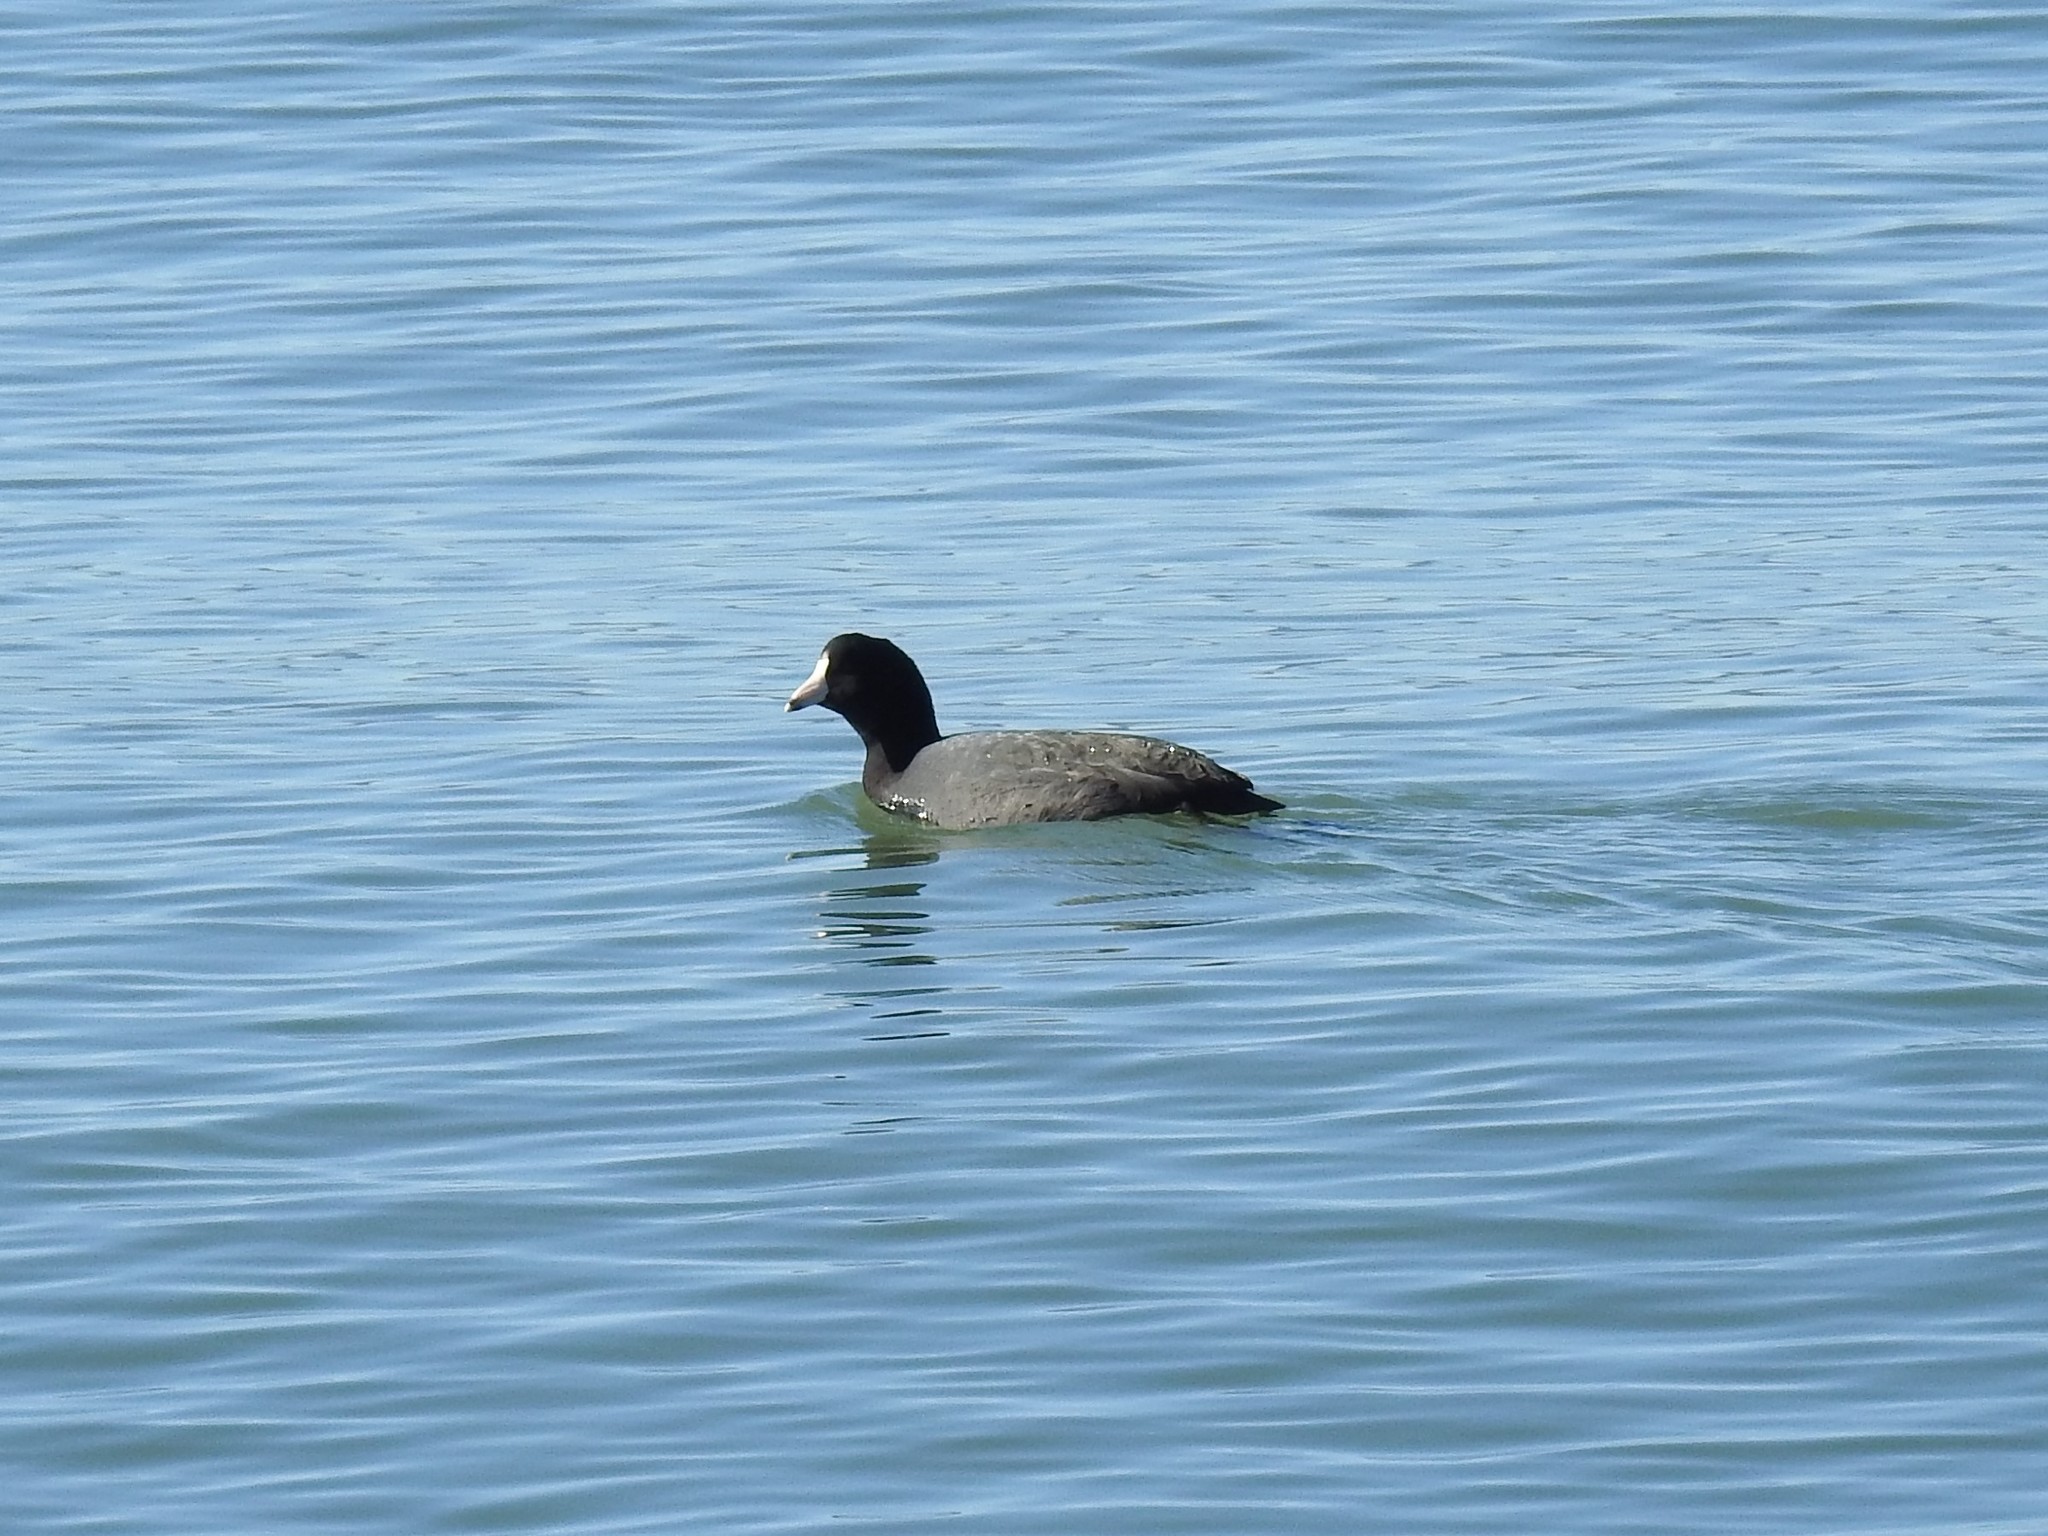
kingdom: Animalia
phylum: Chordata
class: Aves
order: Gruiformes
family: Rallidae
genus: Fulica
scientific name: Fulica americana
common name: American coot
